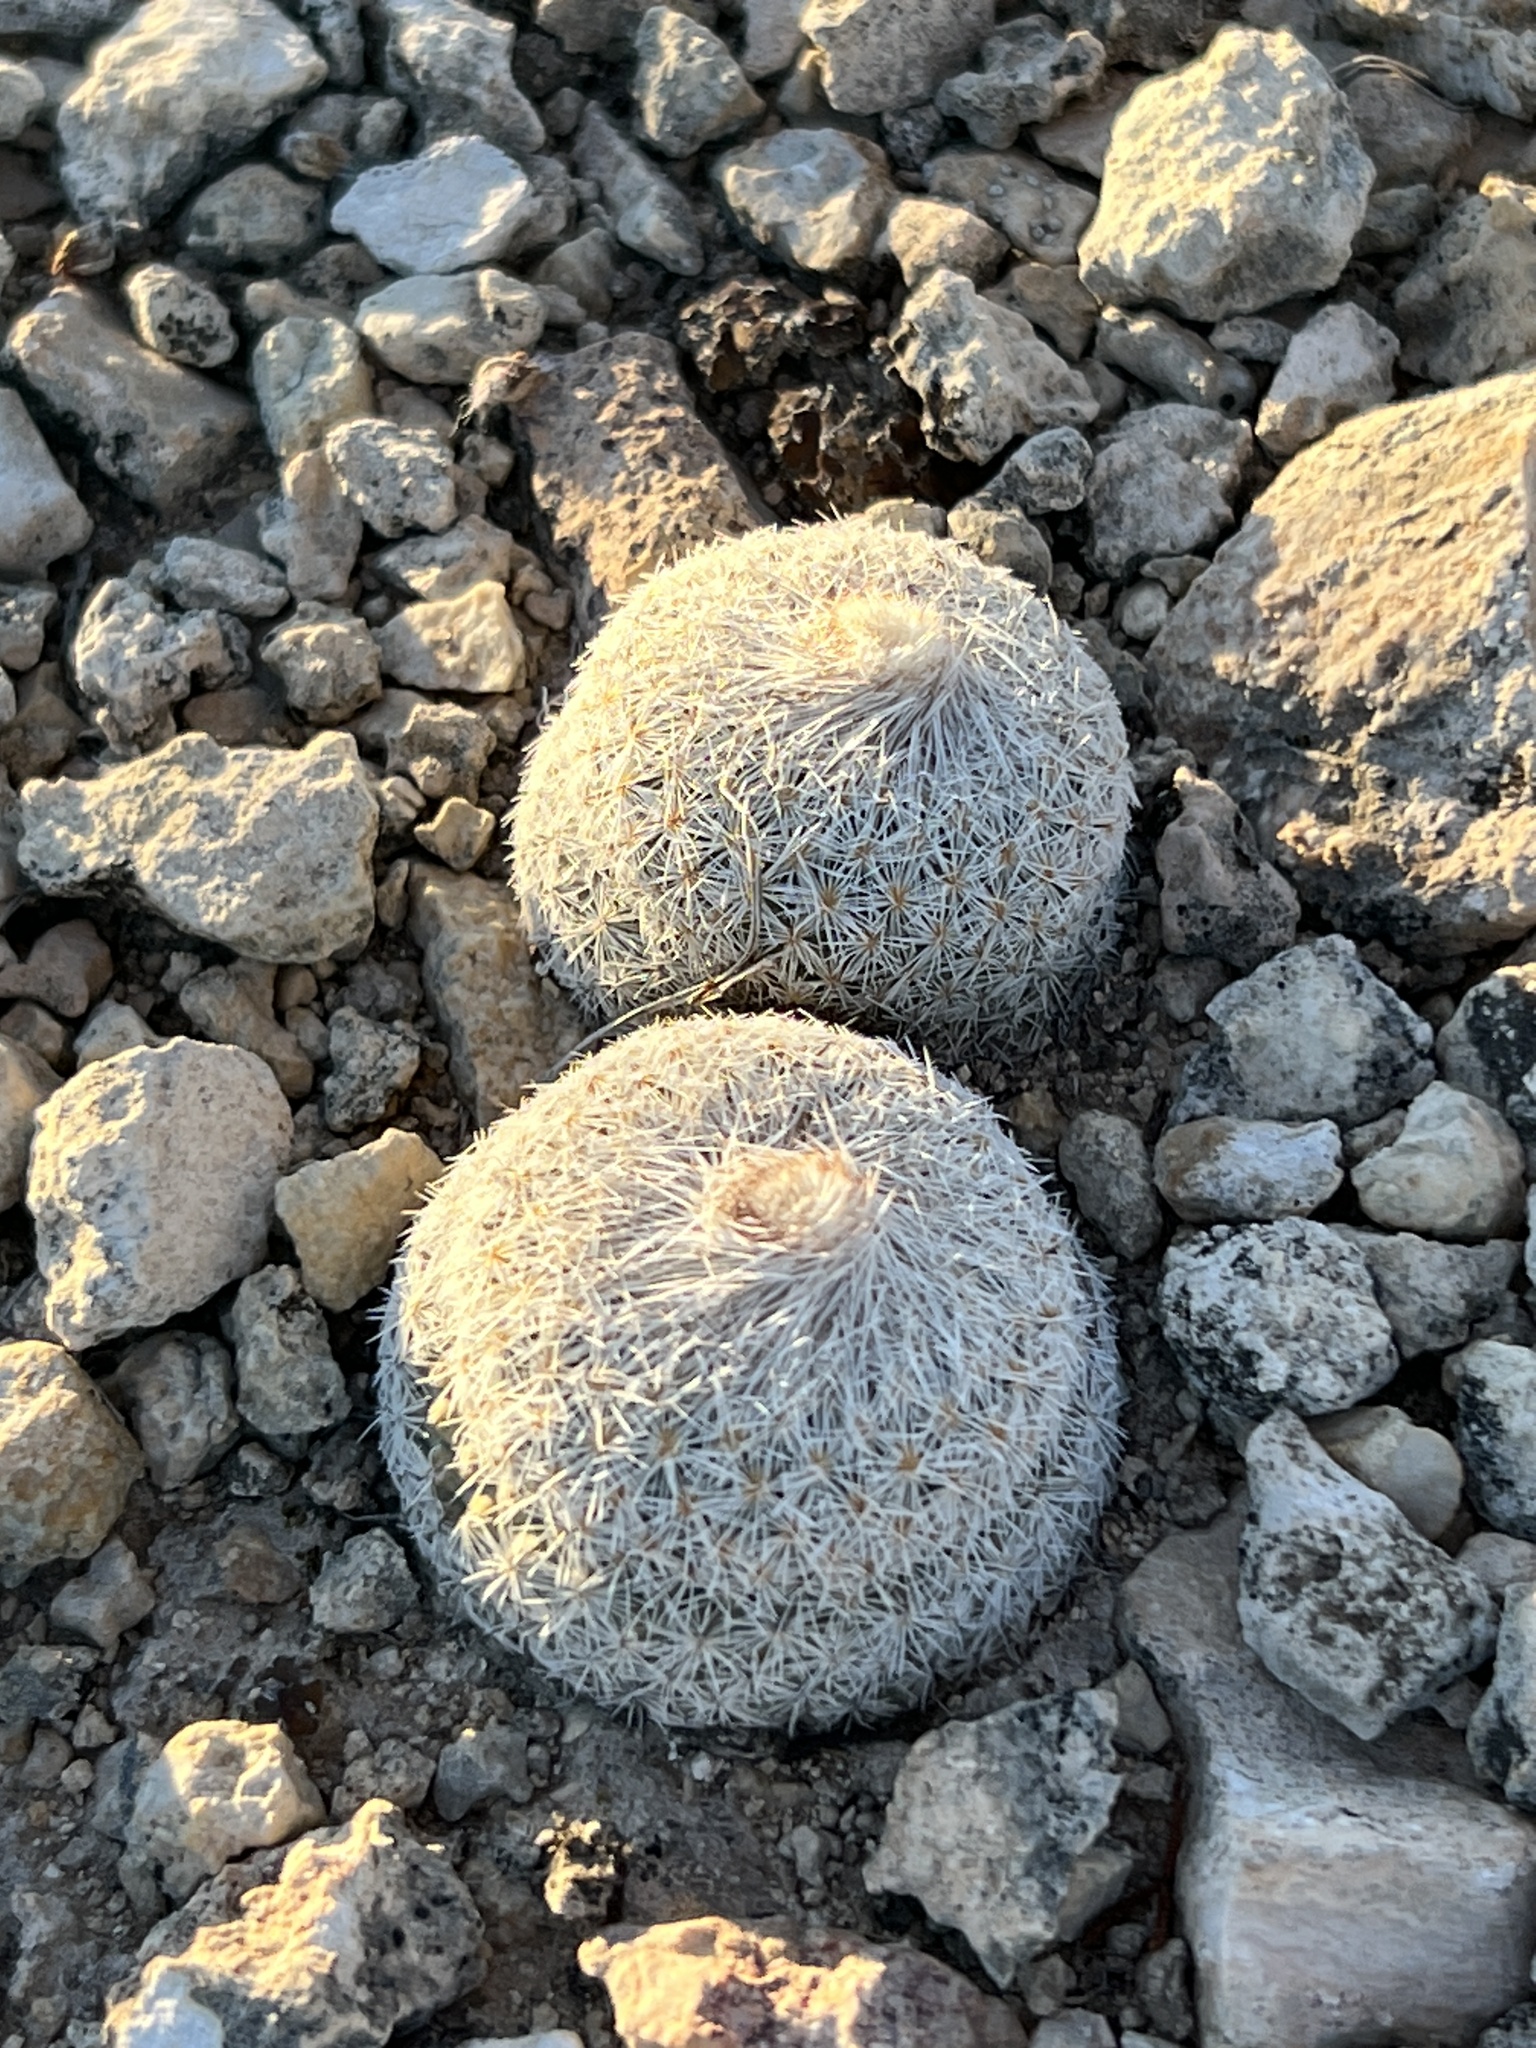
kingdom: Plantae
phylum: Tracheophyta
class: Magnoliopsida
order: Caryophyllales
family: Cactaceae
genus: Epithelantha
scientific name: Epithelantha micromeris
